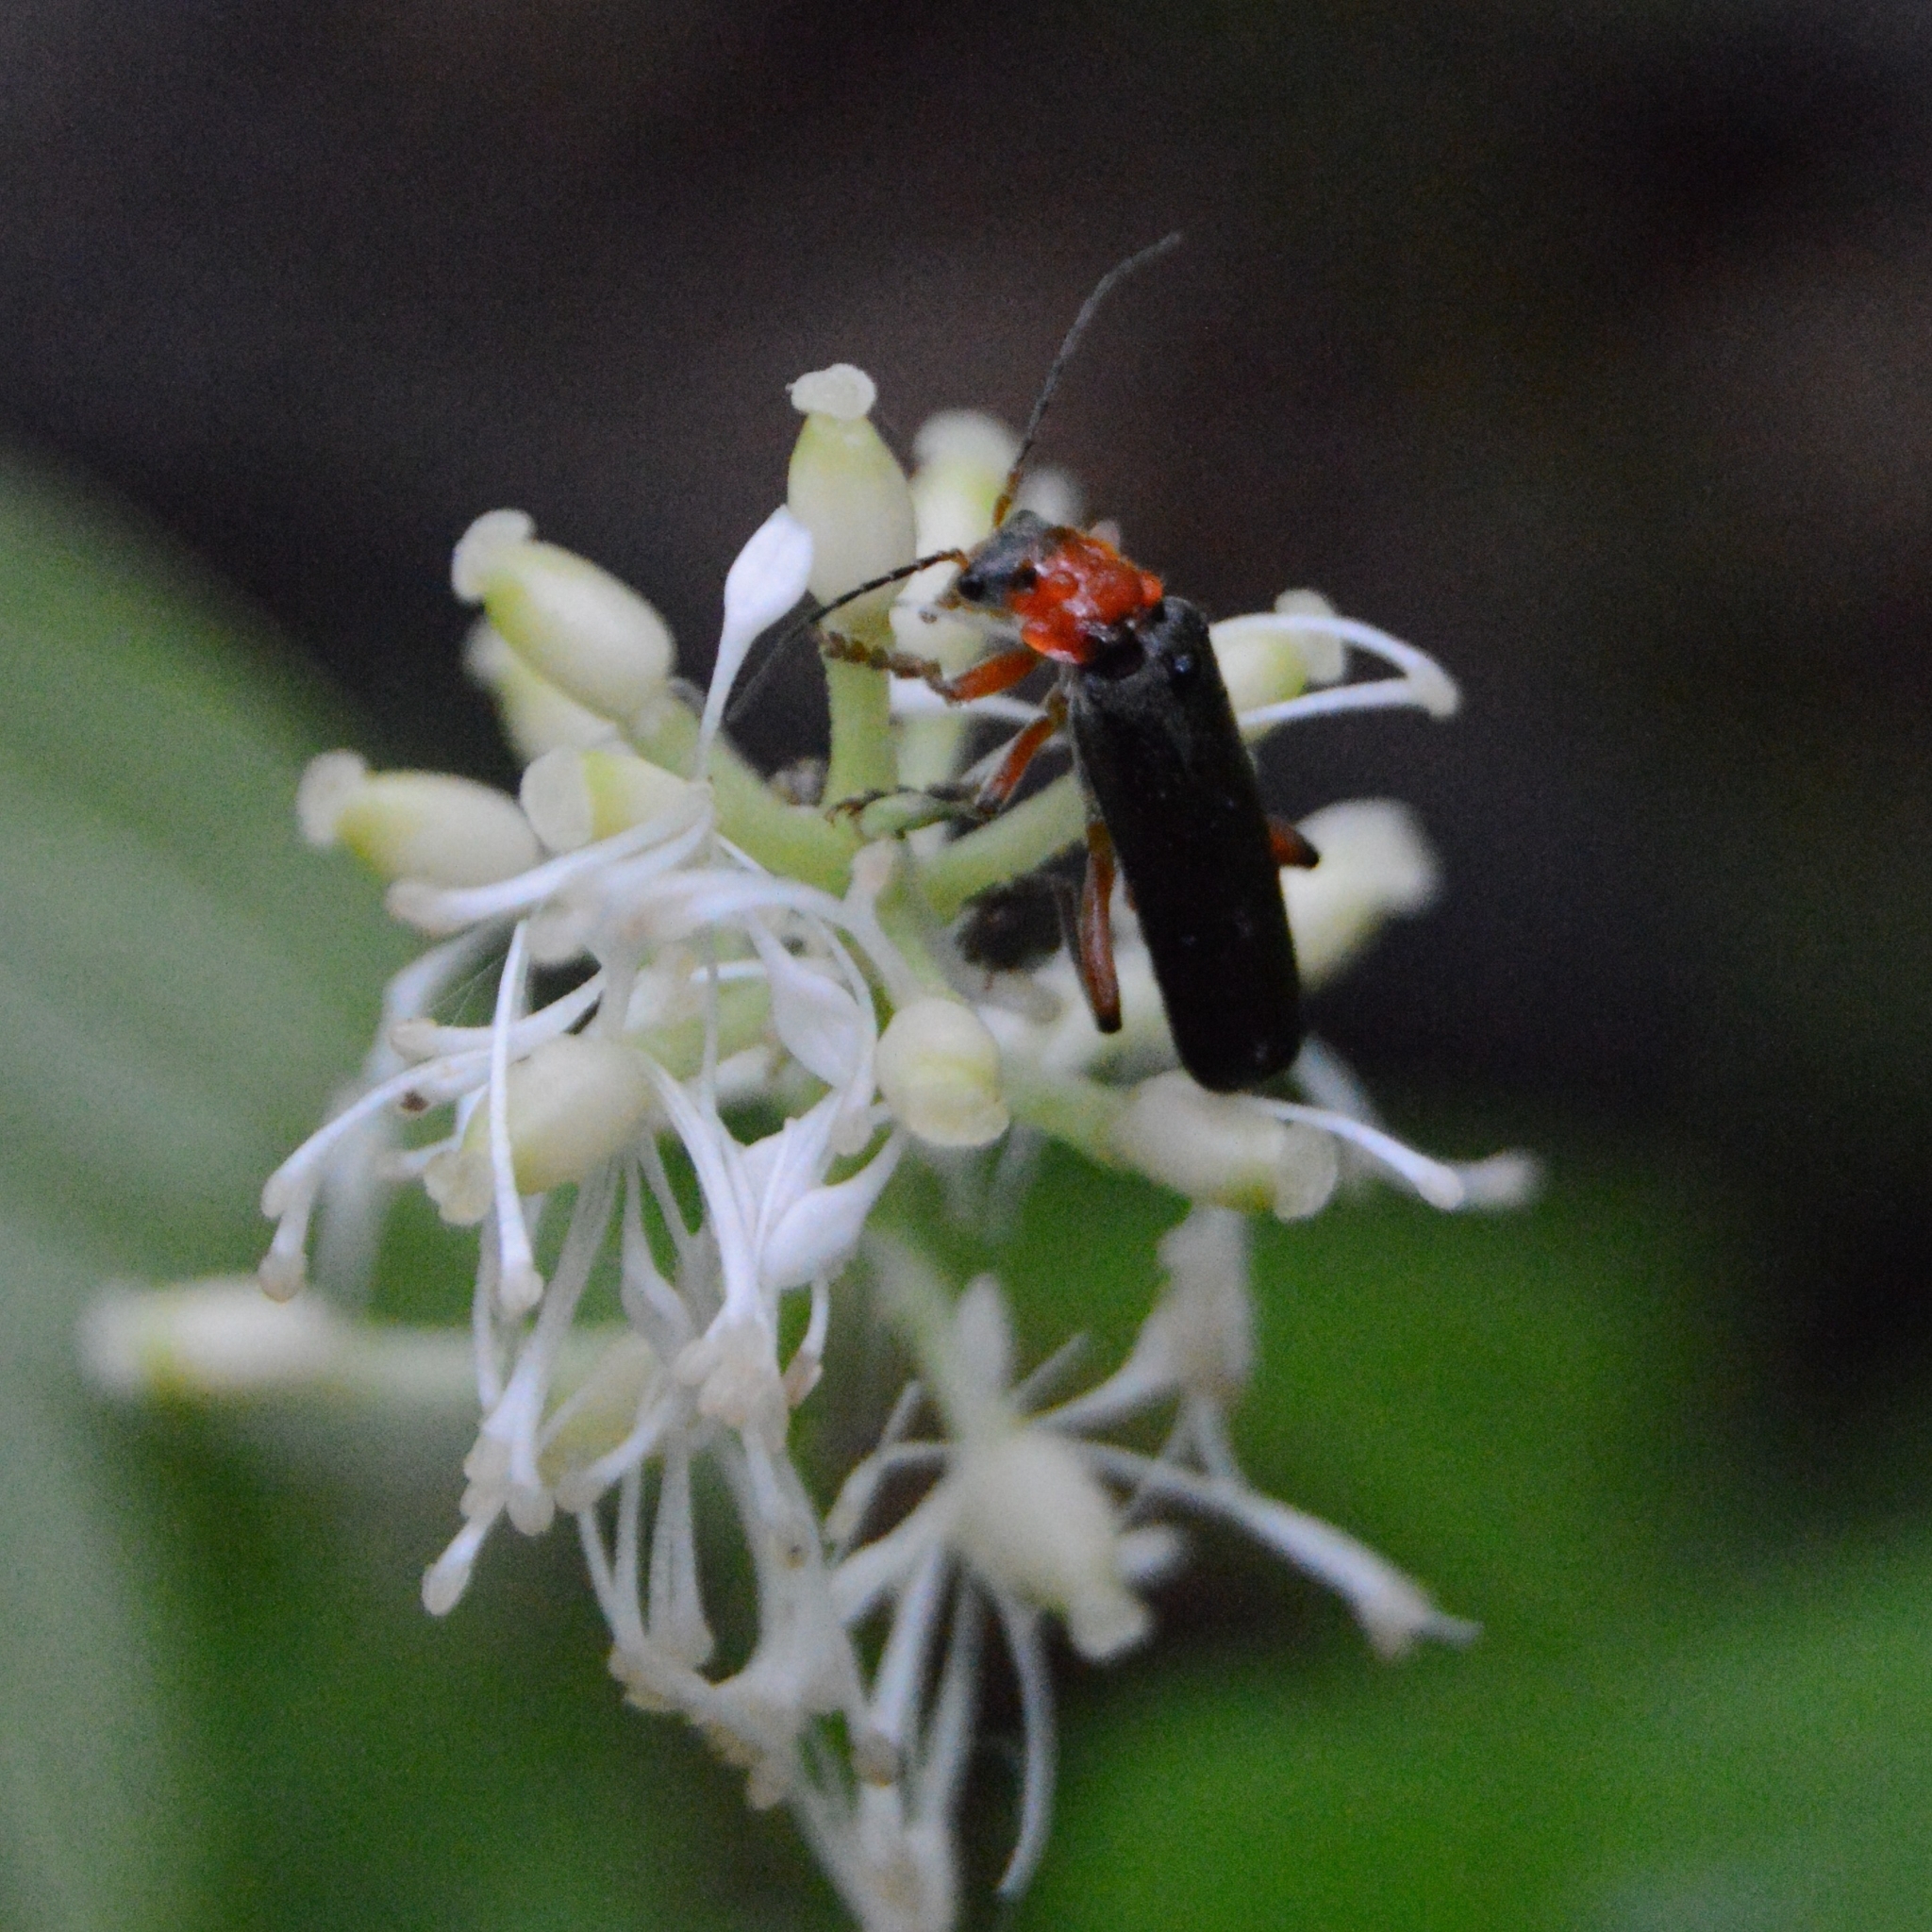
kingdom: Animalia
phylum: Arthropoda
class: Insecta
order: Coleoptera
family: Cantharidae
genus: Cantharis
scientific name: Cantharis pellucida
